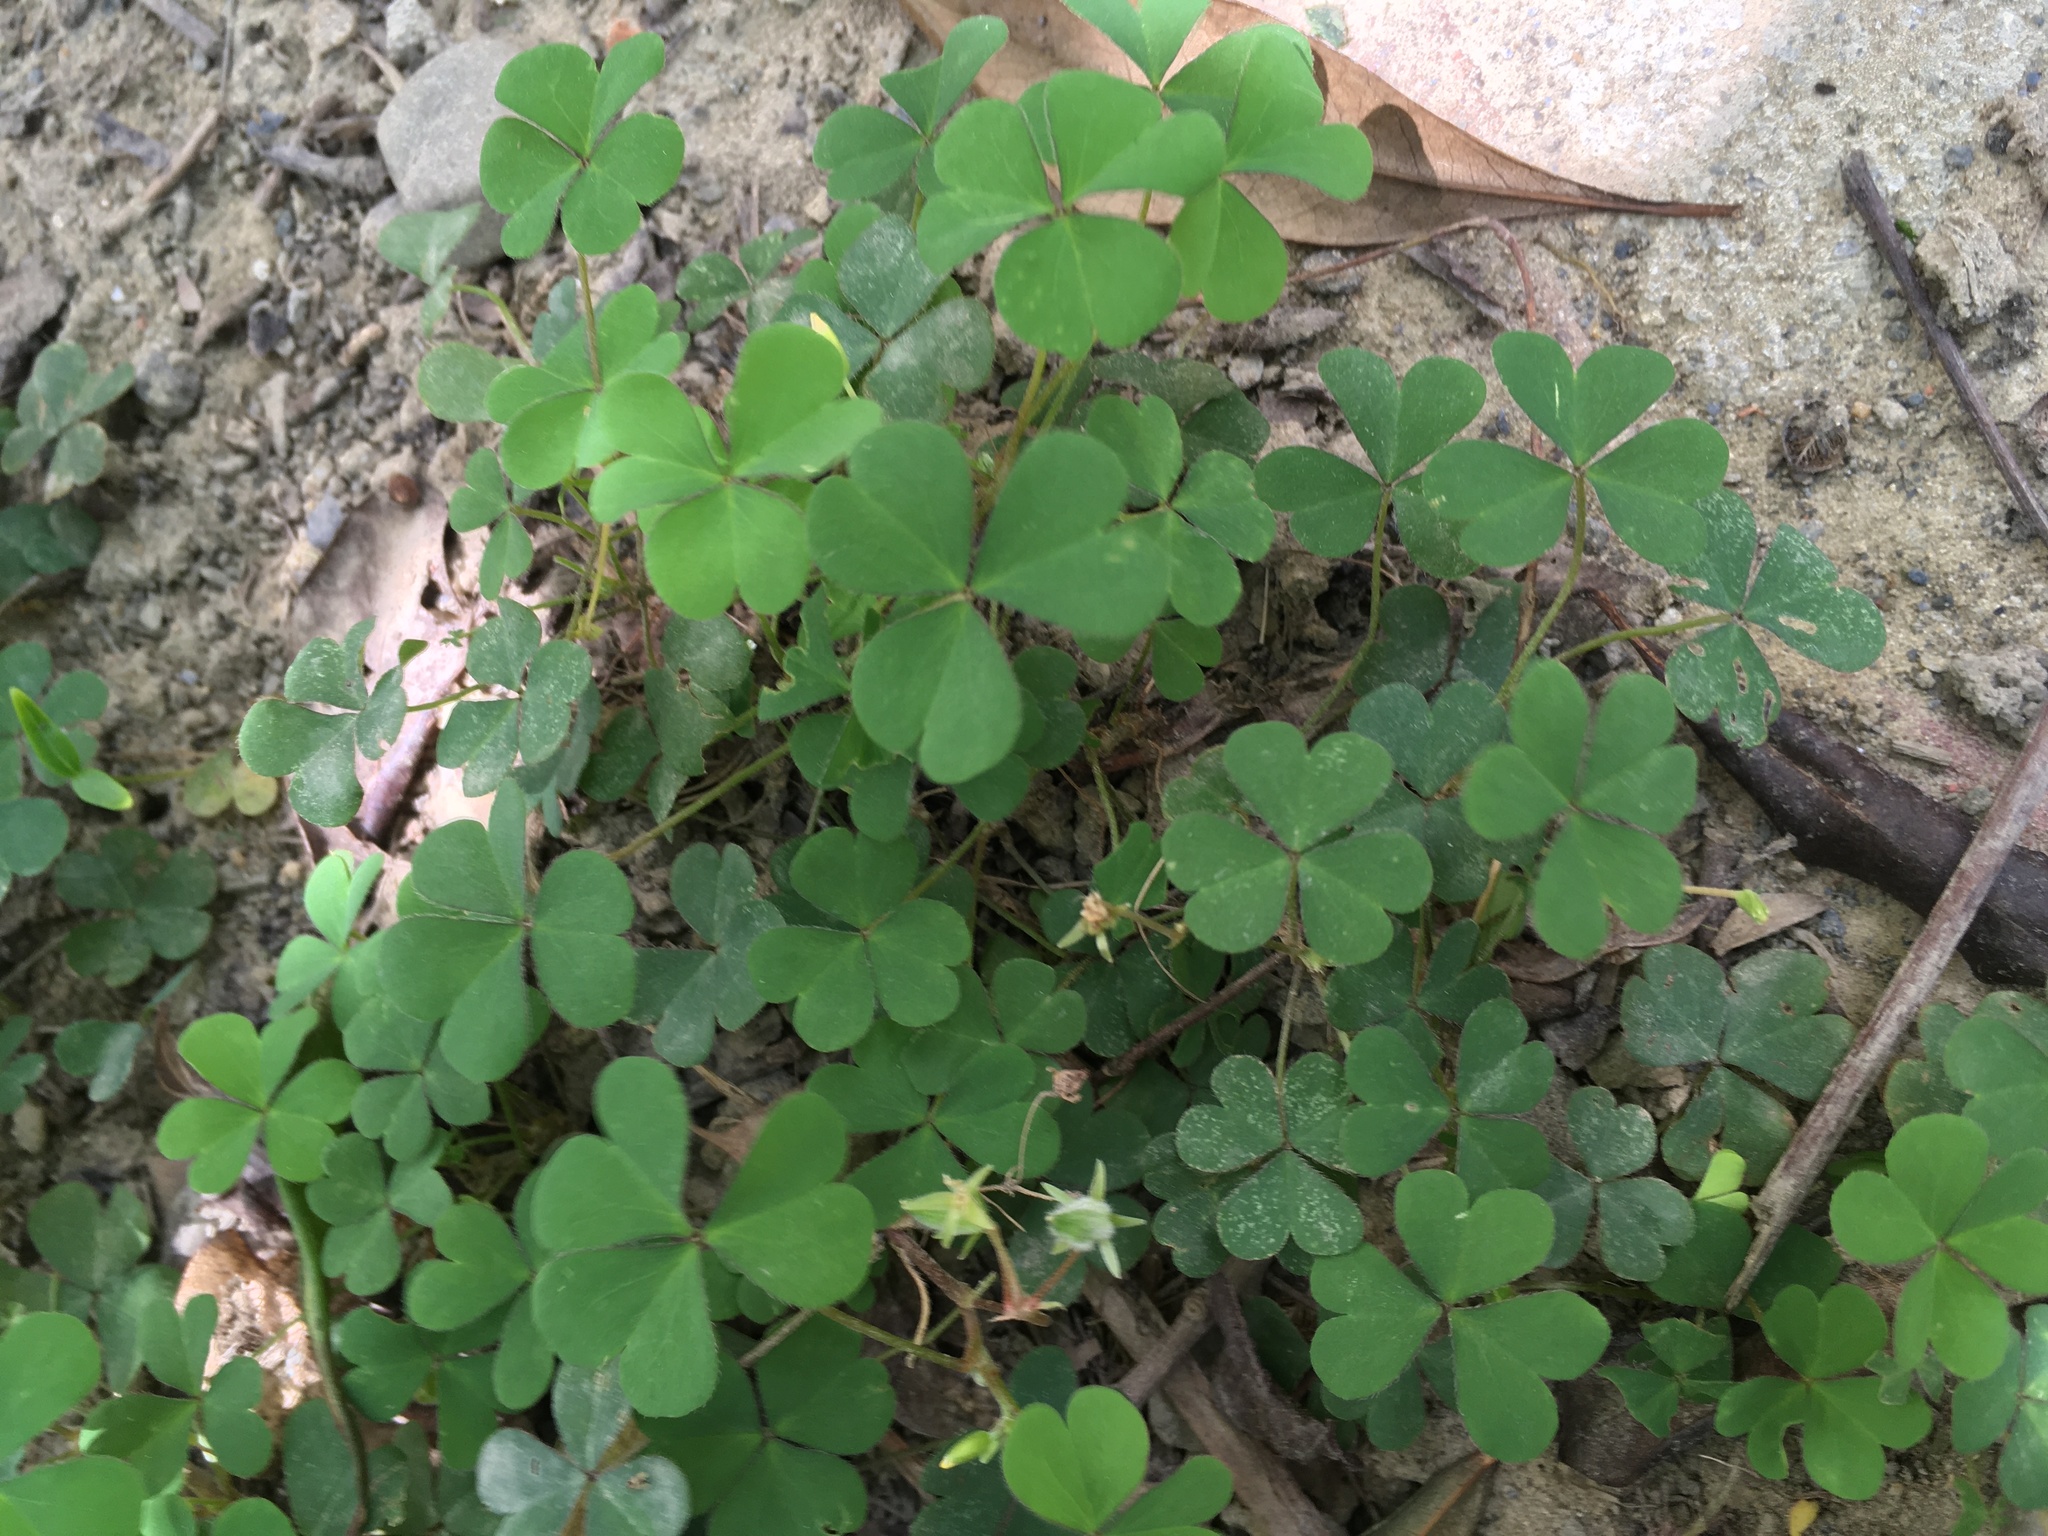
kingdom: Plantae
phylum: Tracheophyta
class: Magnoliopsida
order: Oxalidales
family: Oxalidaceae
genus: Oxalis
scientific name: Oxalis corniculata
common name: Procumbent yellow-sorrel
